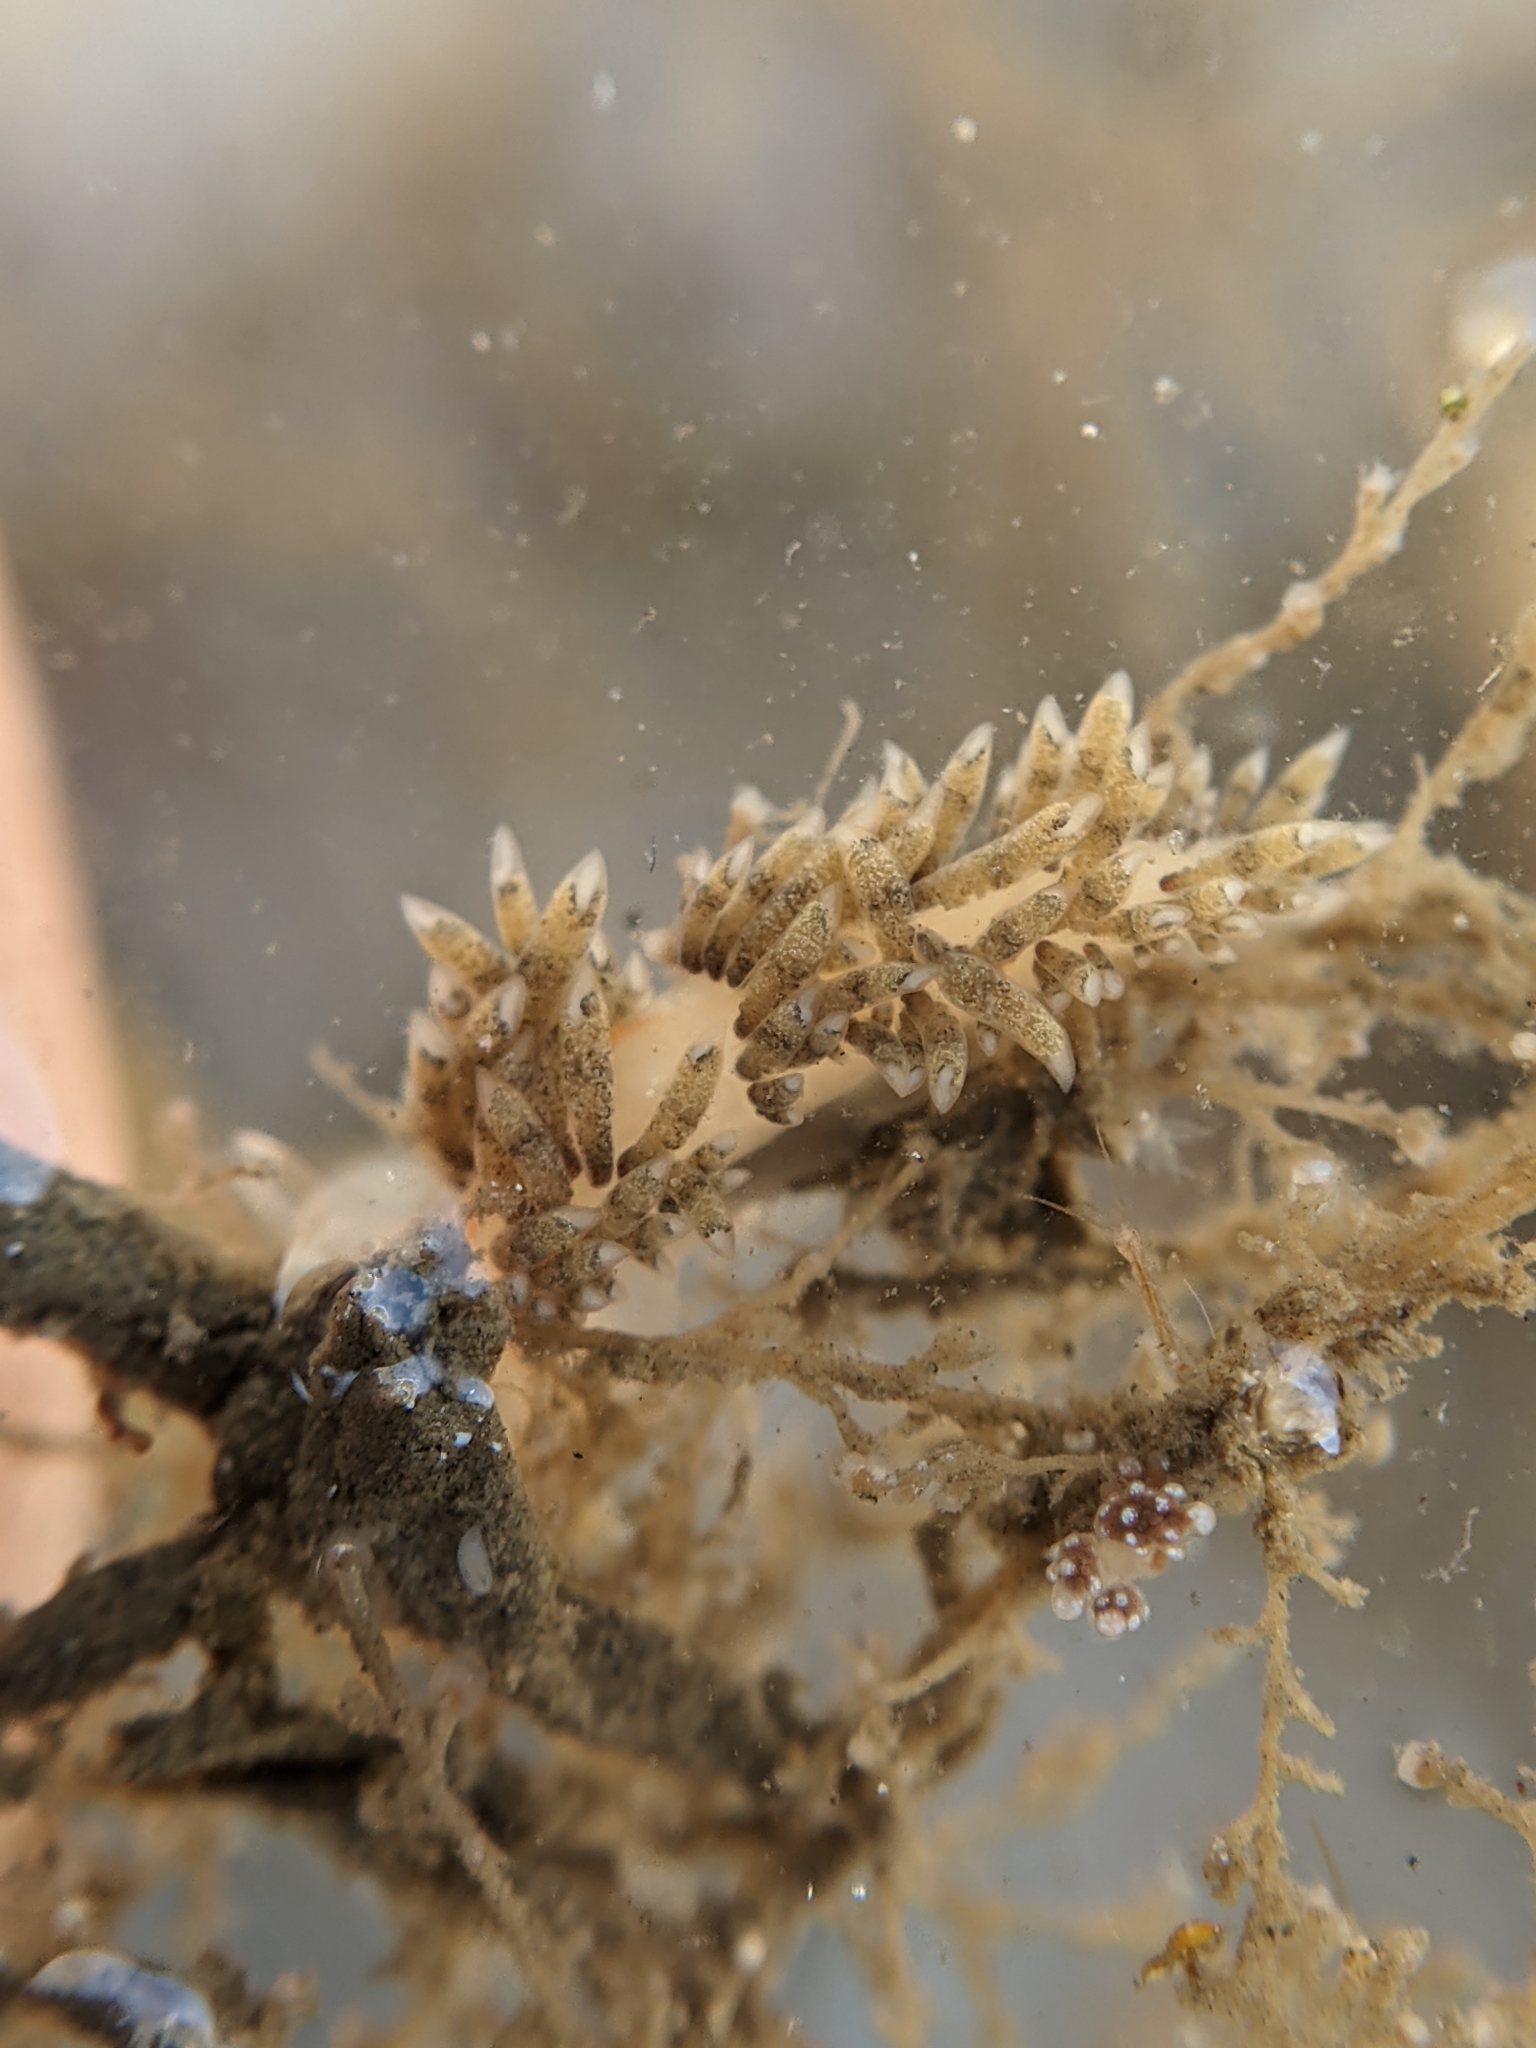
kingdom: Animalia
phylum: Mollusca
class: Gastropoda
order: Nudibranchia
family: Facelinidae
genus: Emarcusia
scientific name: Emarcusia morroensis
